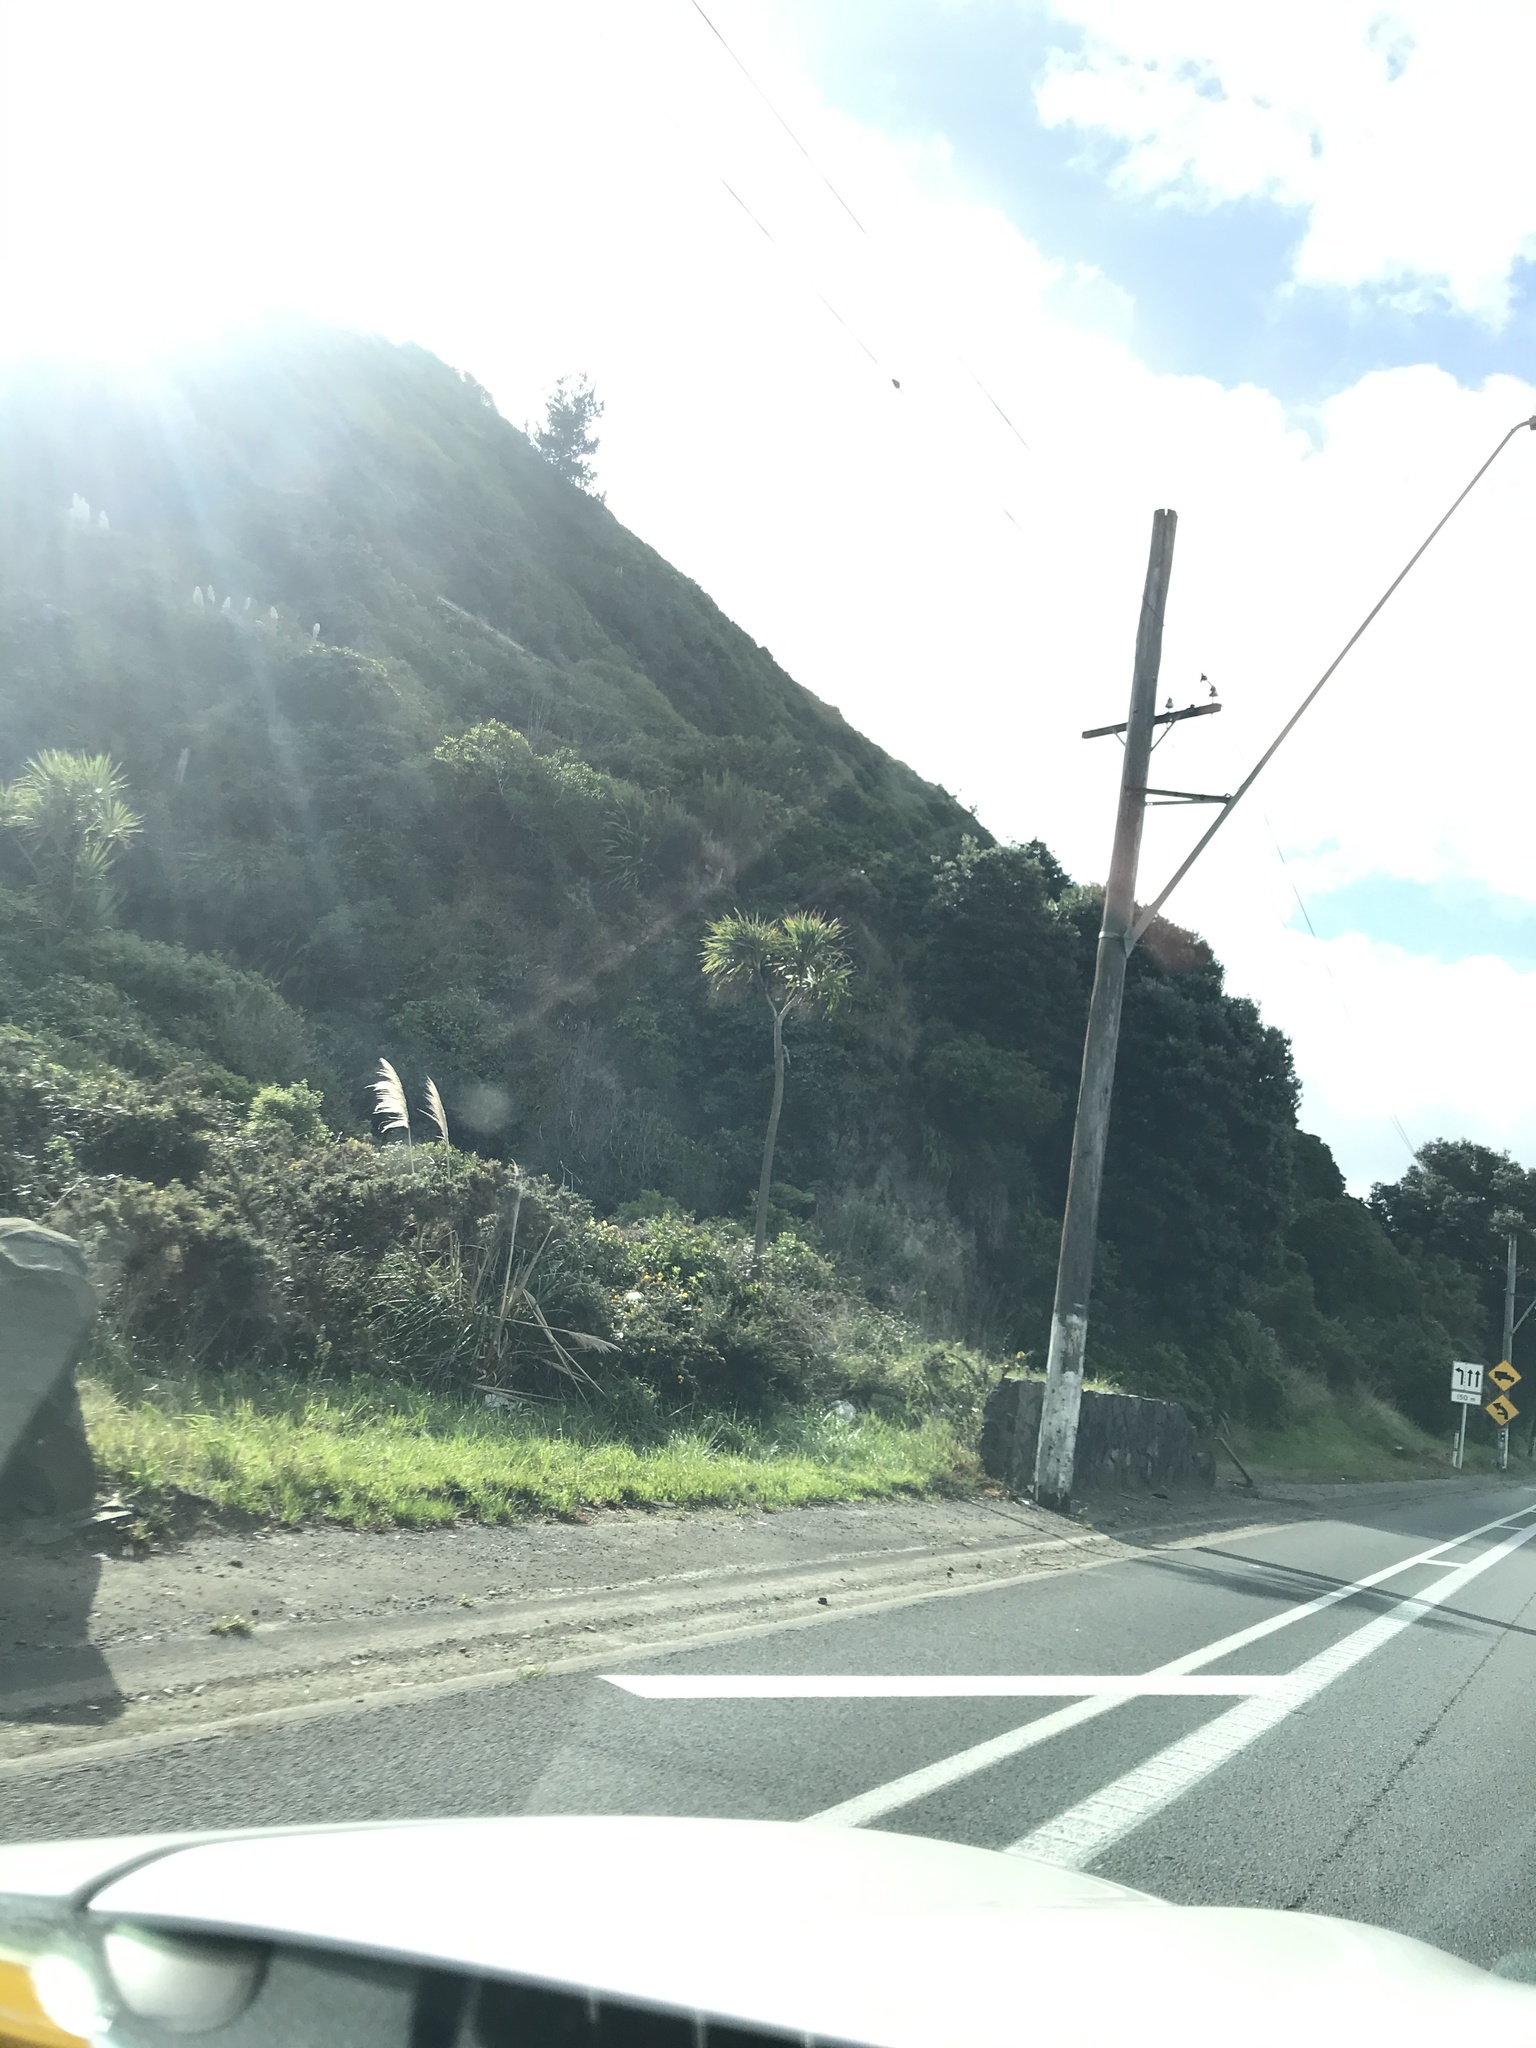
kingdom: Plantae
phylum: Tracheophyta
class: Liliopsida
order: Poales
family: Poaceae
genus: Cortaderia
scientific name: Cortaderia selloana
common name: Uruguayan pampas grass
